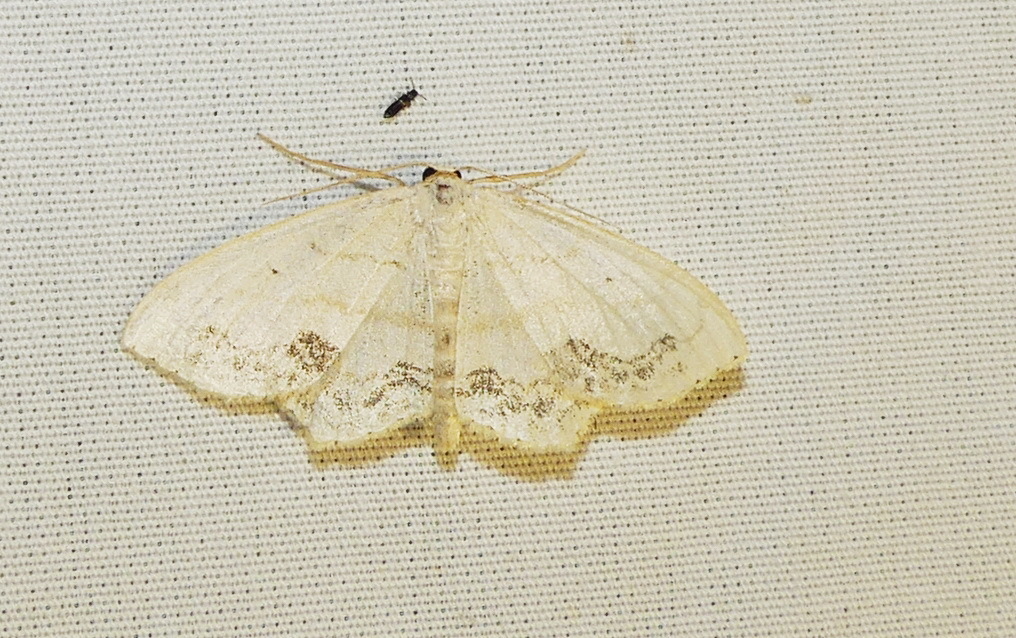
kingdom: Animalia
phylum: Arthropoda
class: Insecta
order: Lepidoptera
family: Geometridae
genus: Scopula
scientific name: Scopula limboundata
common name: Large lace border
